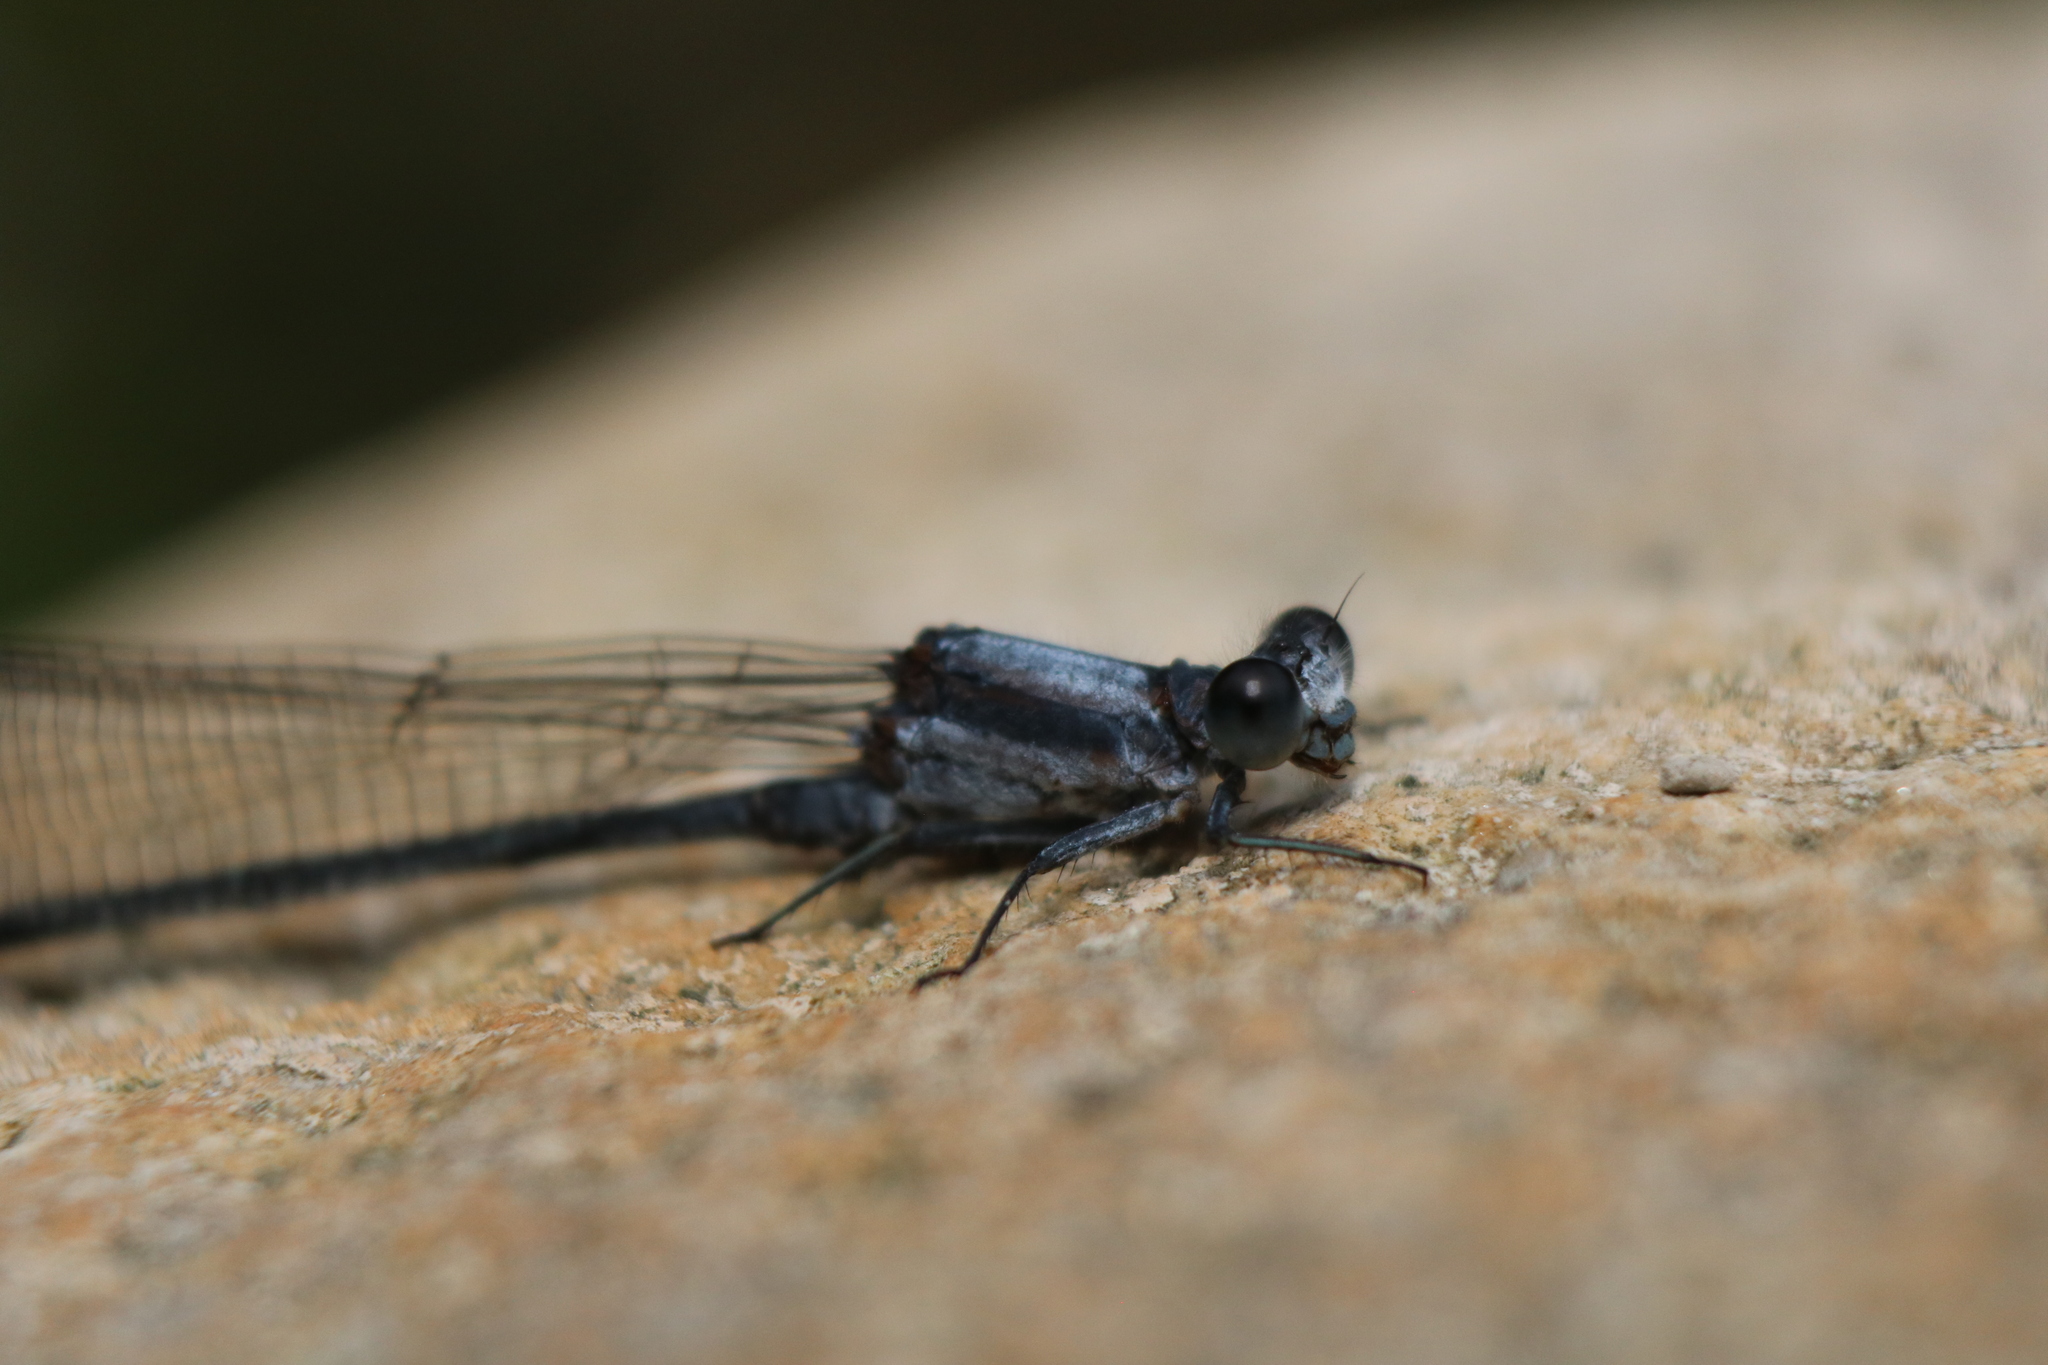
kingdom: Animalia
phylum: Arthropoda
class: Insecta
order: Odonata
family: Coenagrionidae
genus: Argia
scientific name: Argia moesta
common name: Powdered dancer
